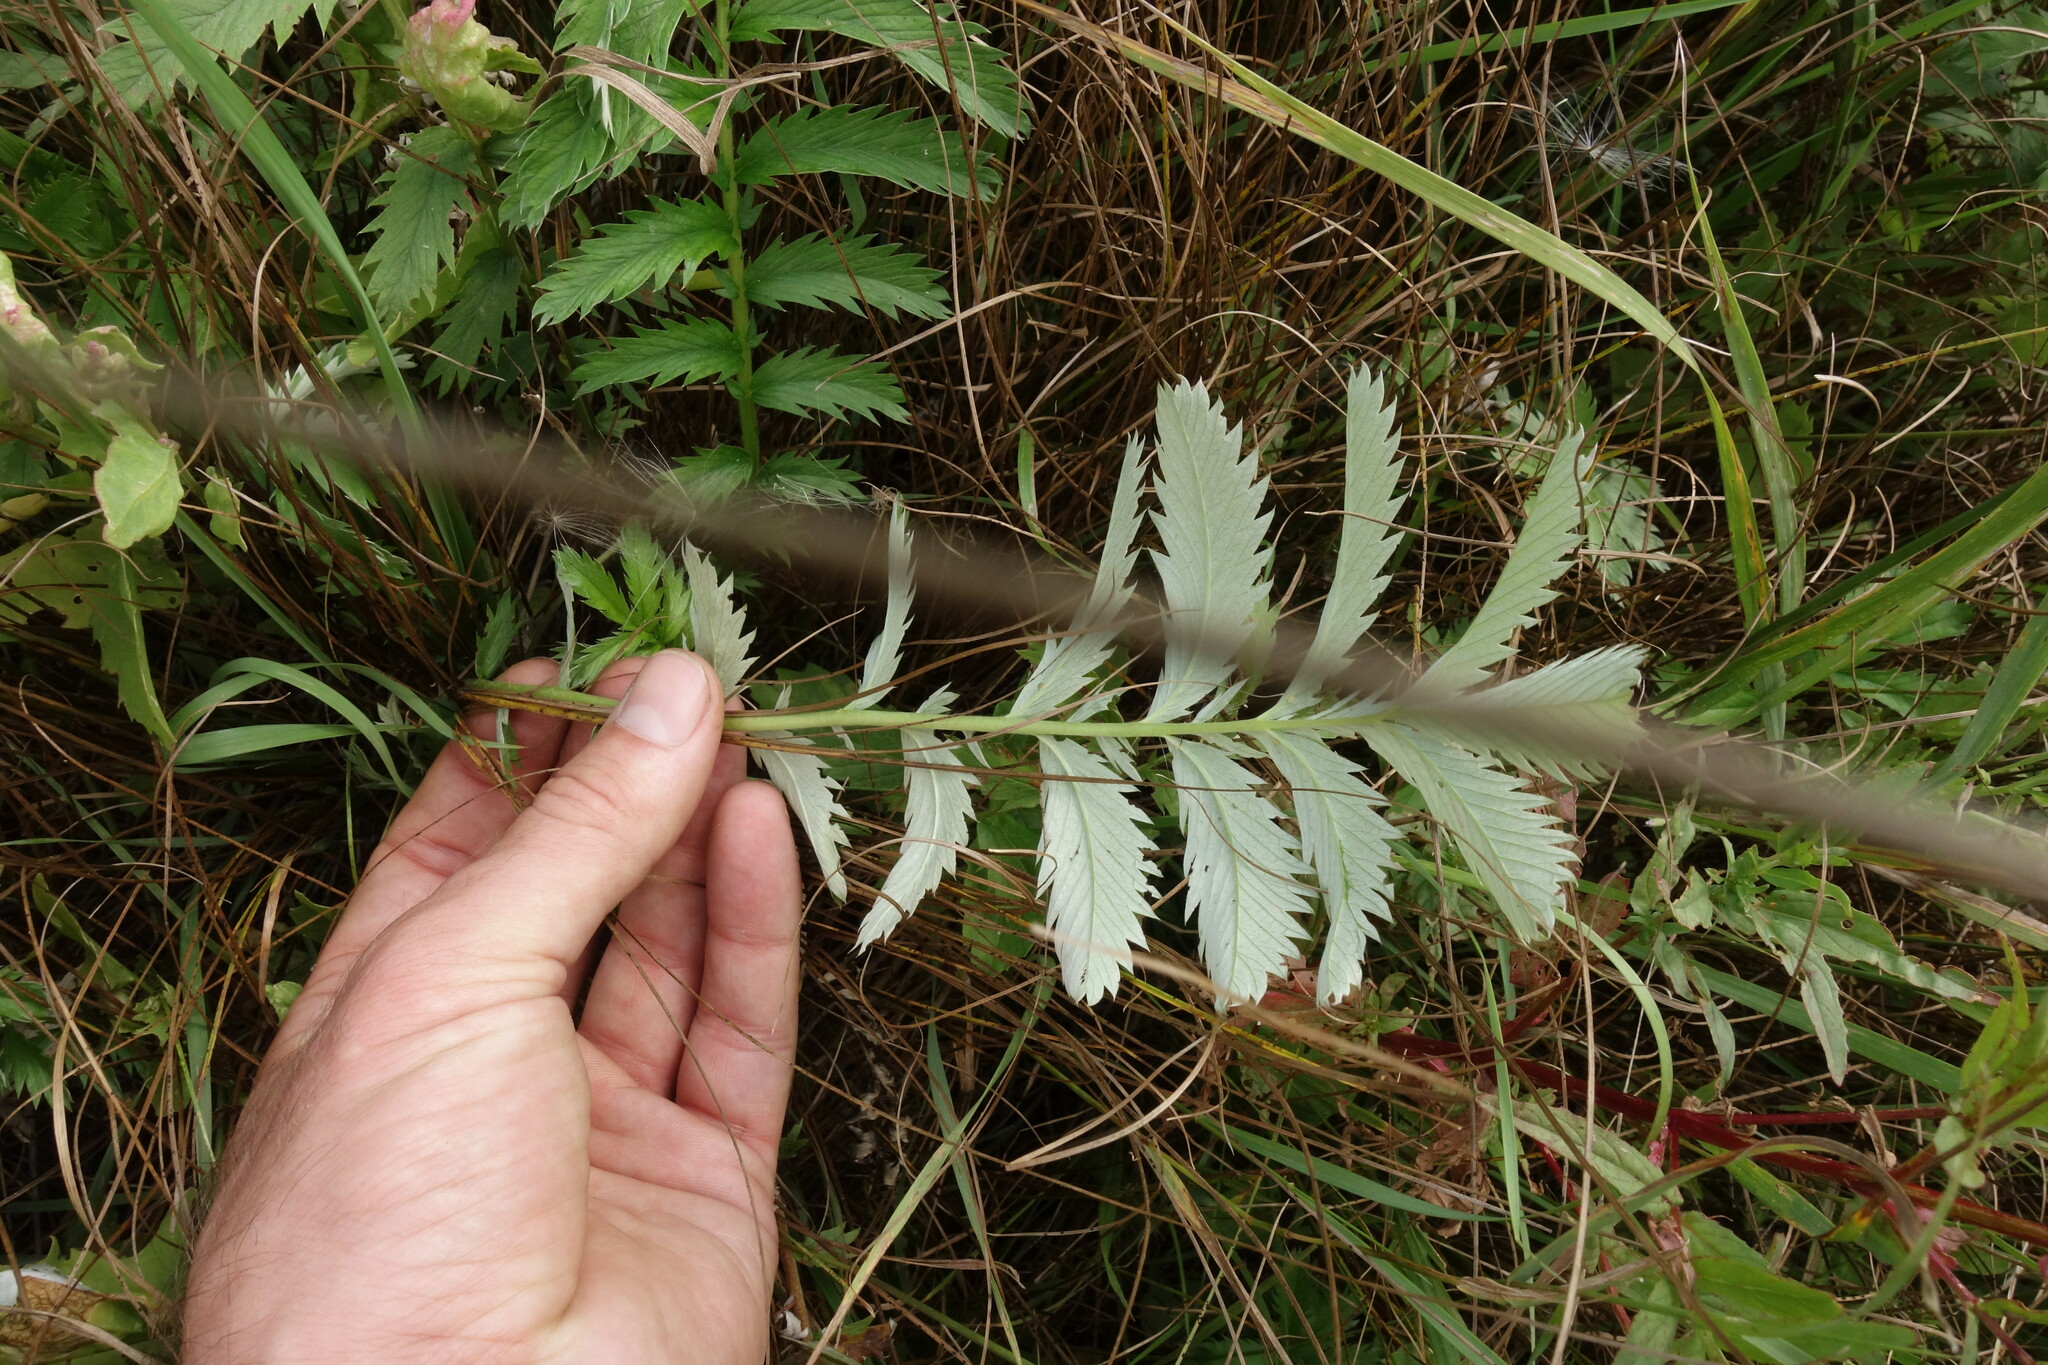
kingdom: Plantae
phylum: Tracheophyta
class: Magnoliopsida
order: Rosales
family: Rosaceae
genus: Argentina
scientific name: Argentina anserina
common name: Common silverweed
